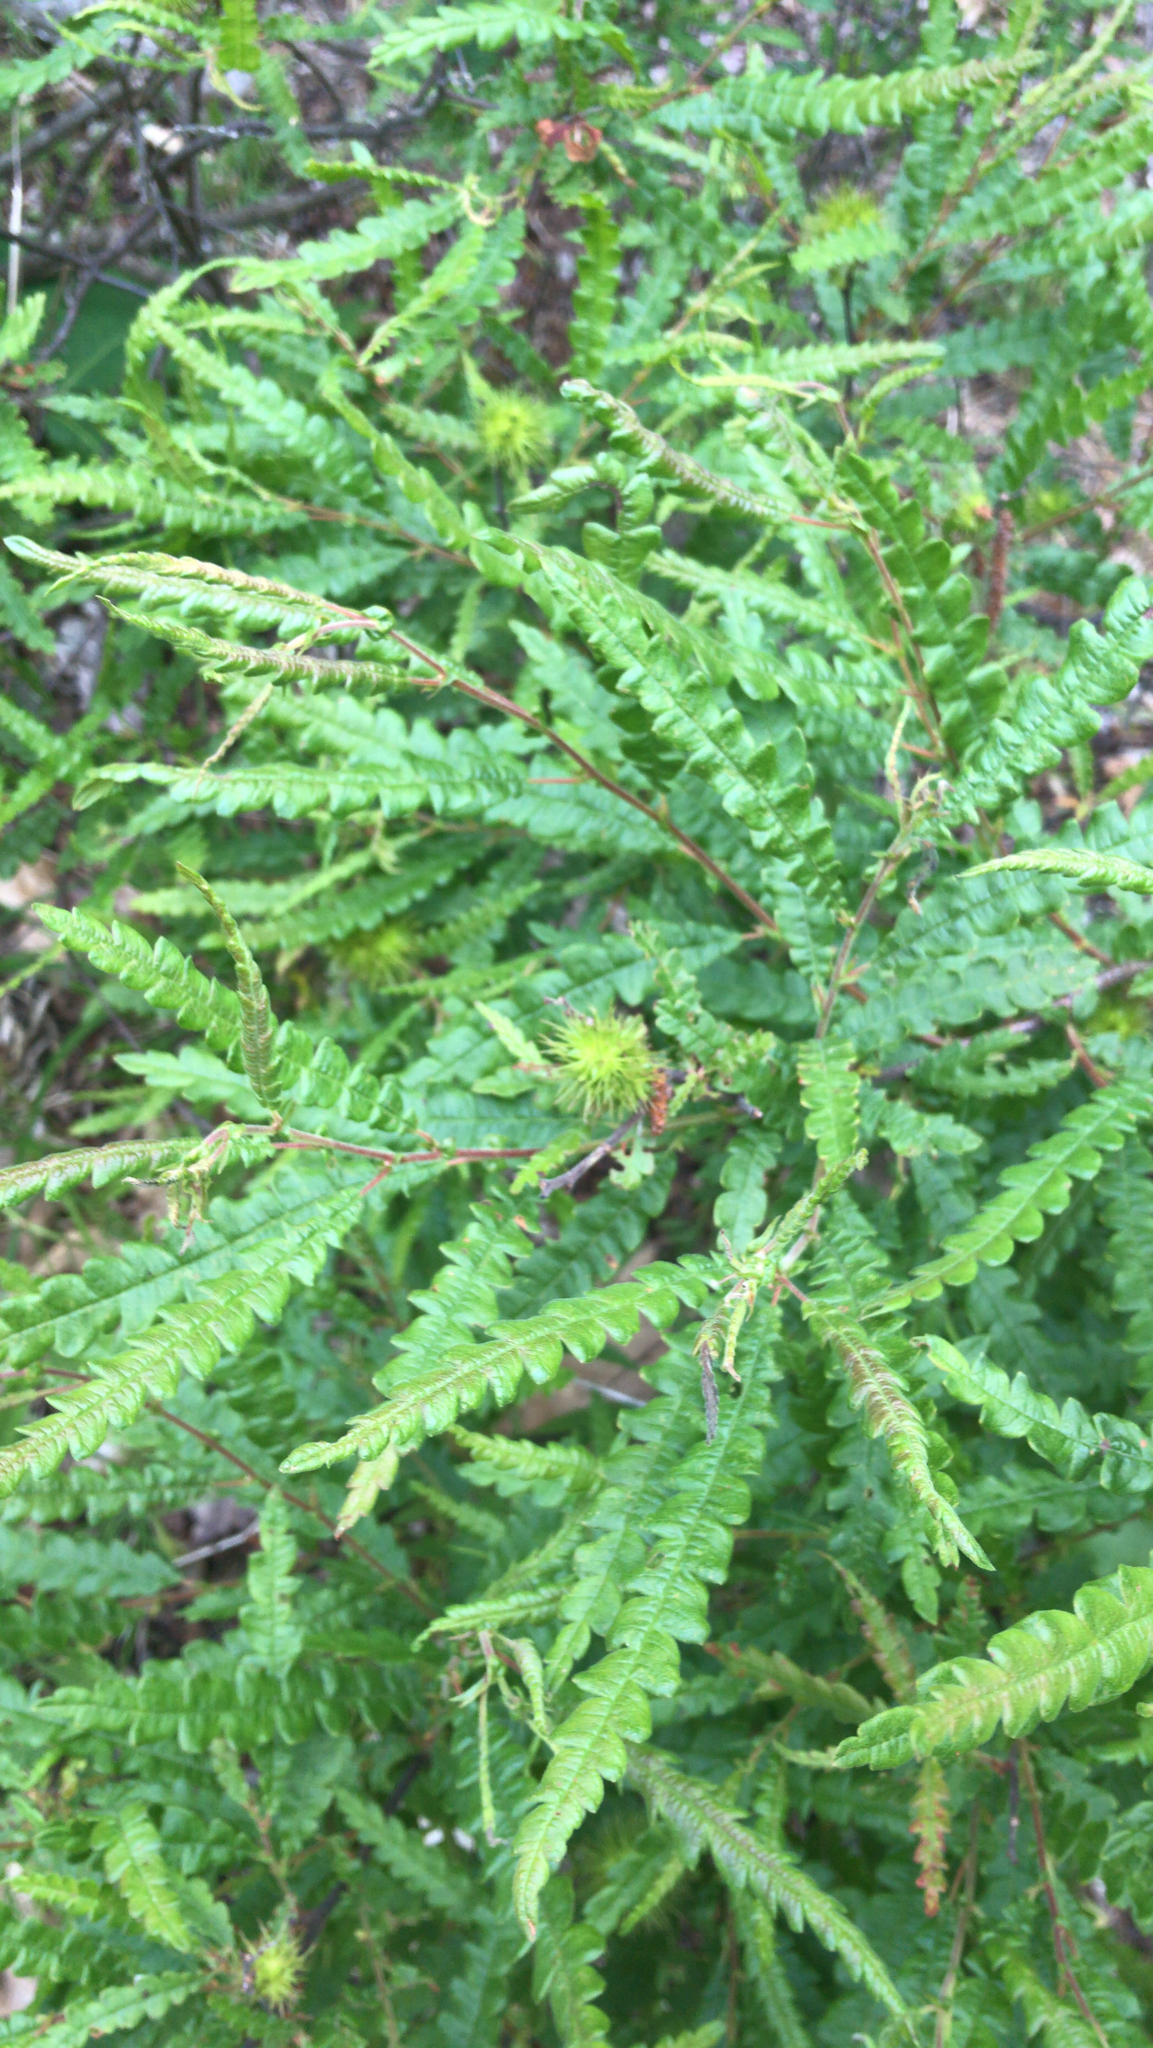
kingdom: Plantae
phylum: Tracheophyta
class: Magnoliopsida
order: Fagales
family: Myricaceae
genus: Comptonia
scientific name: Comptonia peregrina
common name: Sweet-fern
